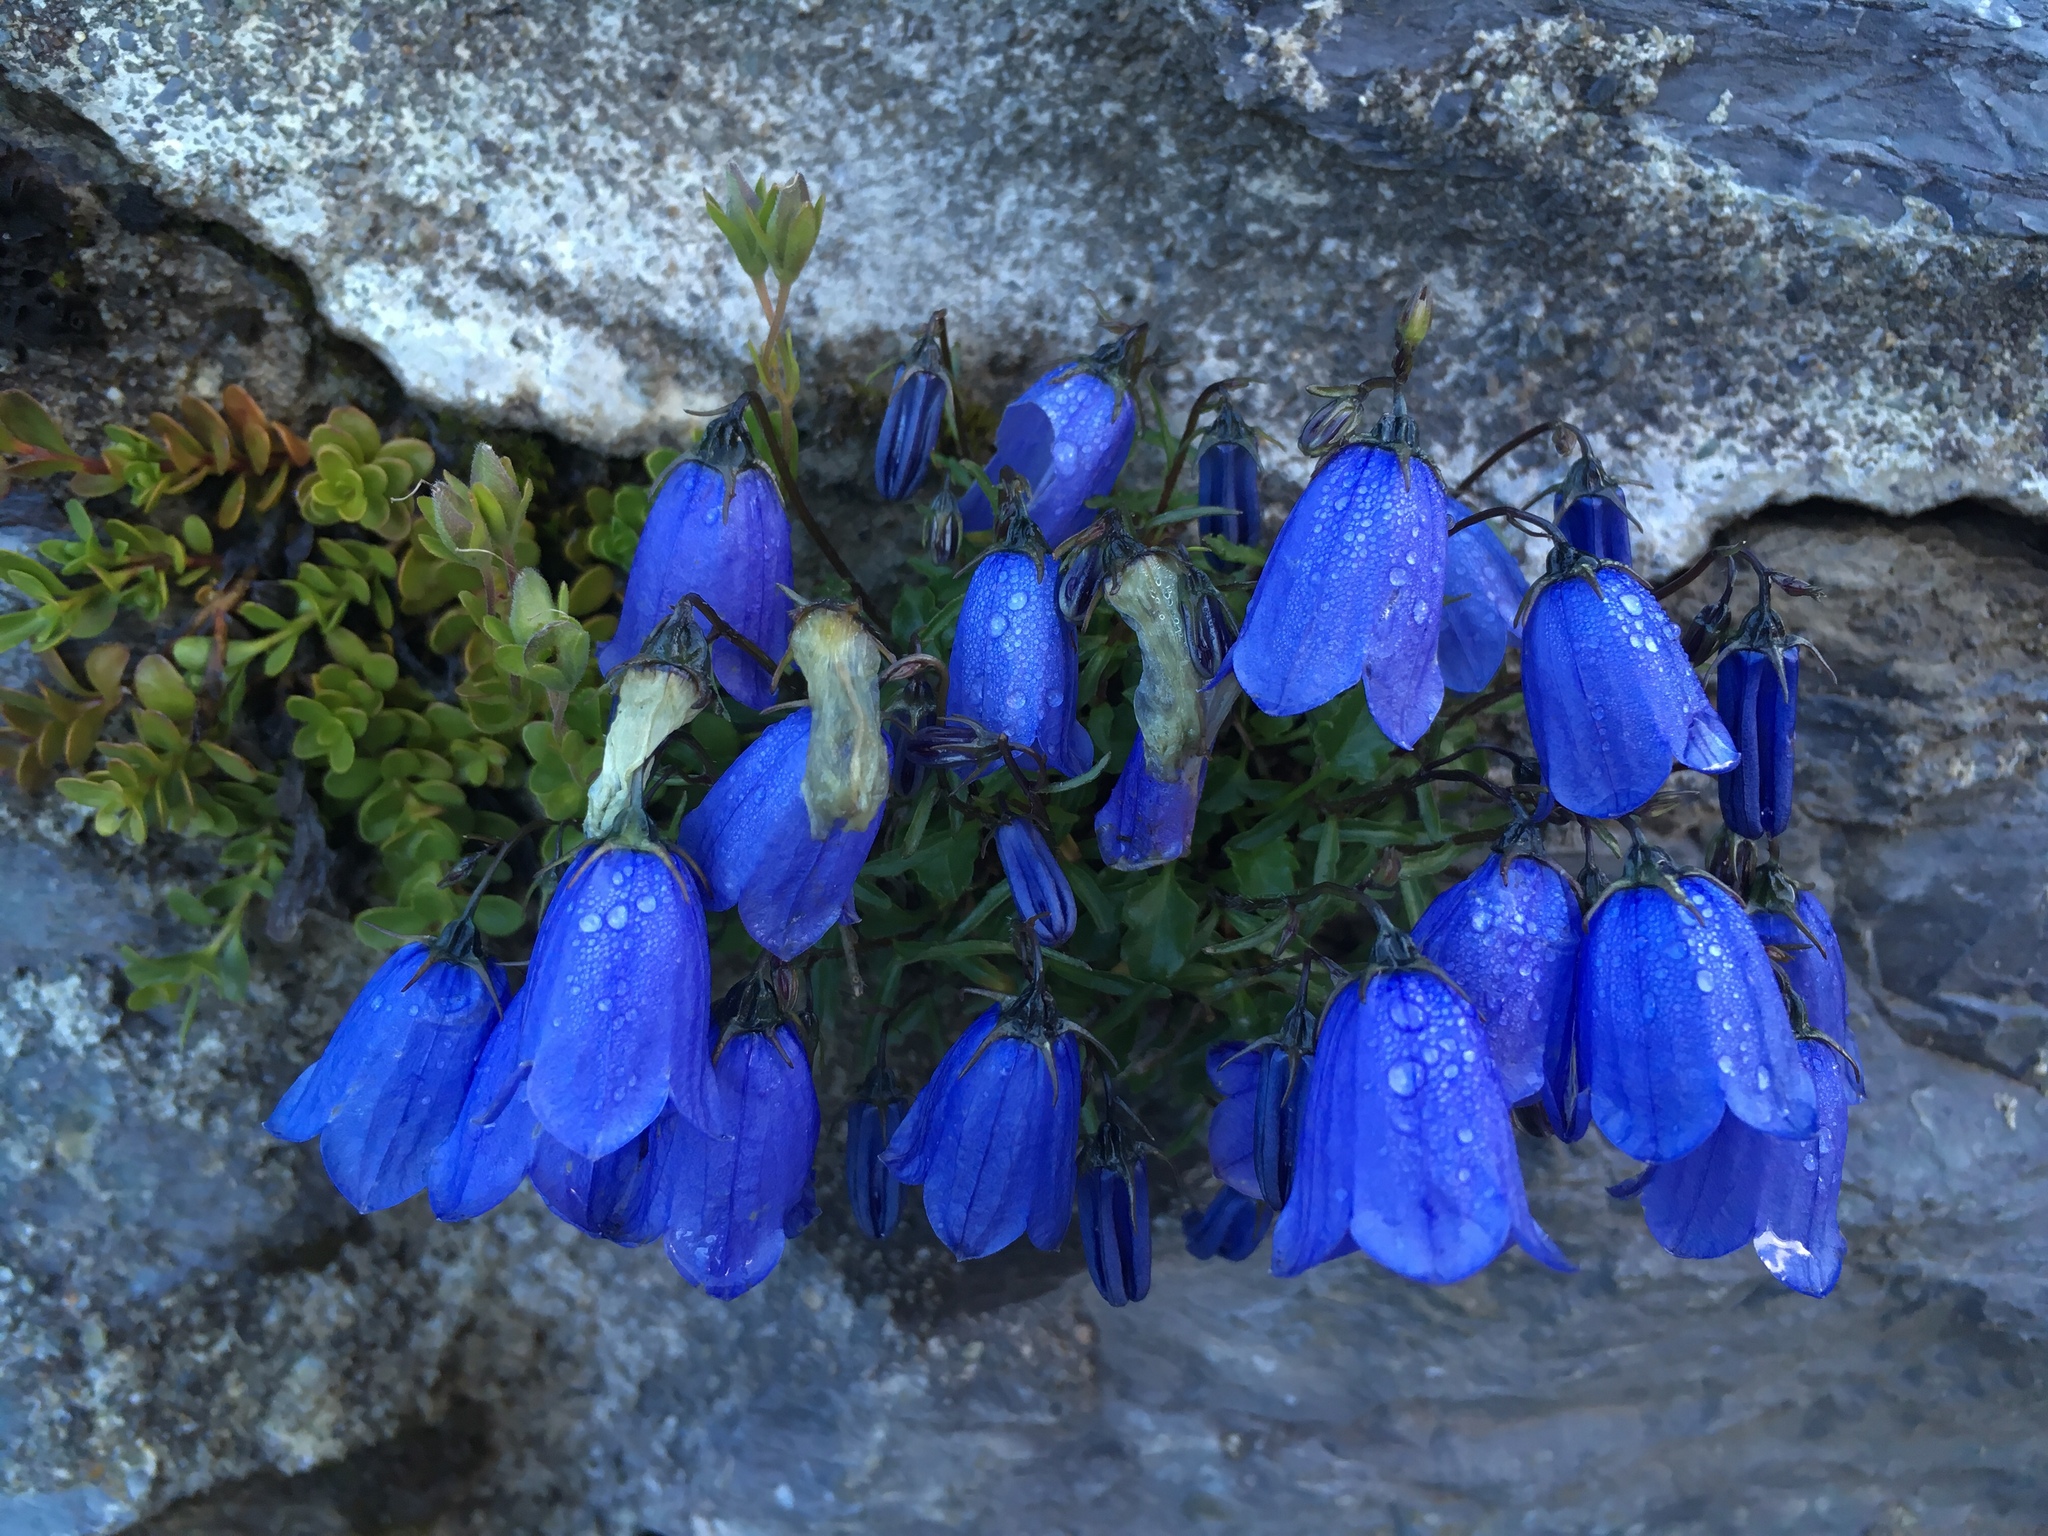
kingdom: Plantae
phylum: Tracheophyta
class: Magnoliopsida
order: Asterales
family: Campanulaceae
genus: Campanula
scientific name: Campanula cochleariifolia
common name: Fairies'-thimbles
